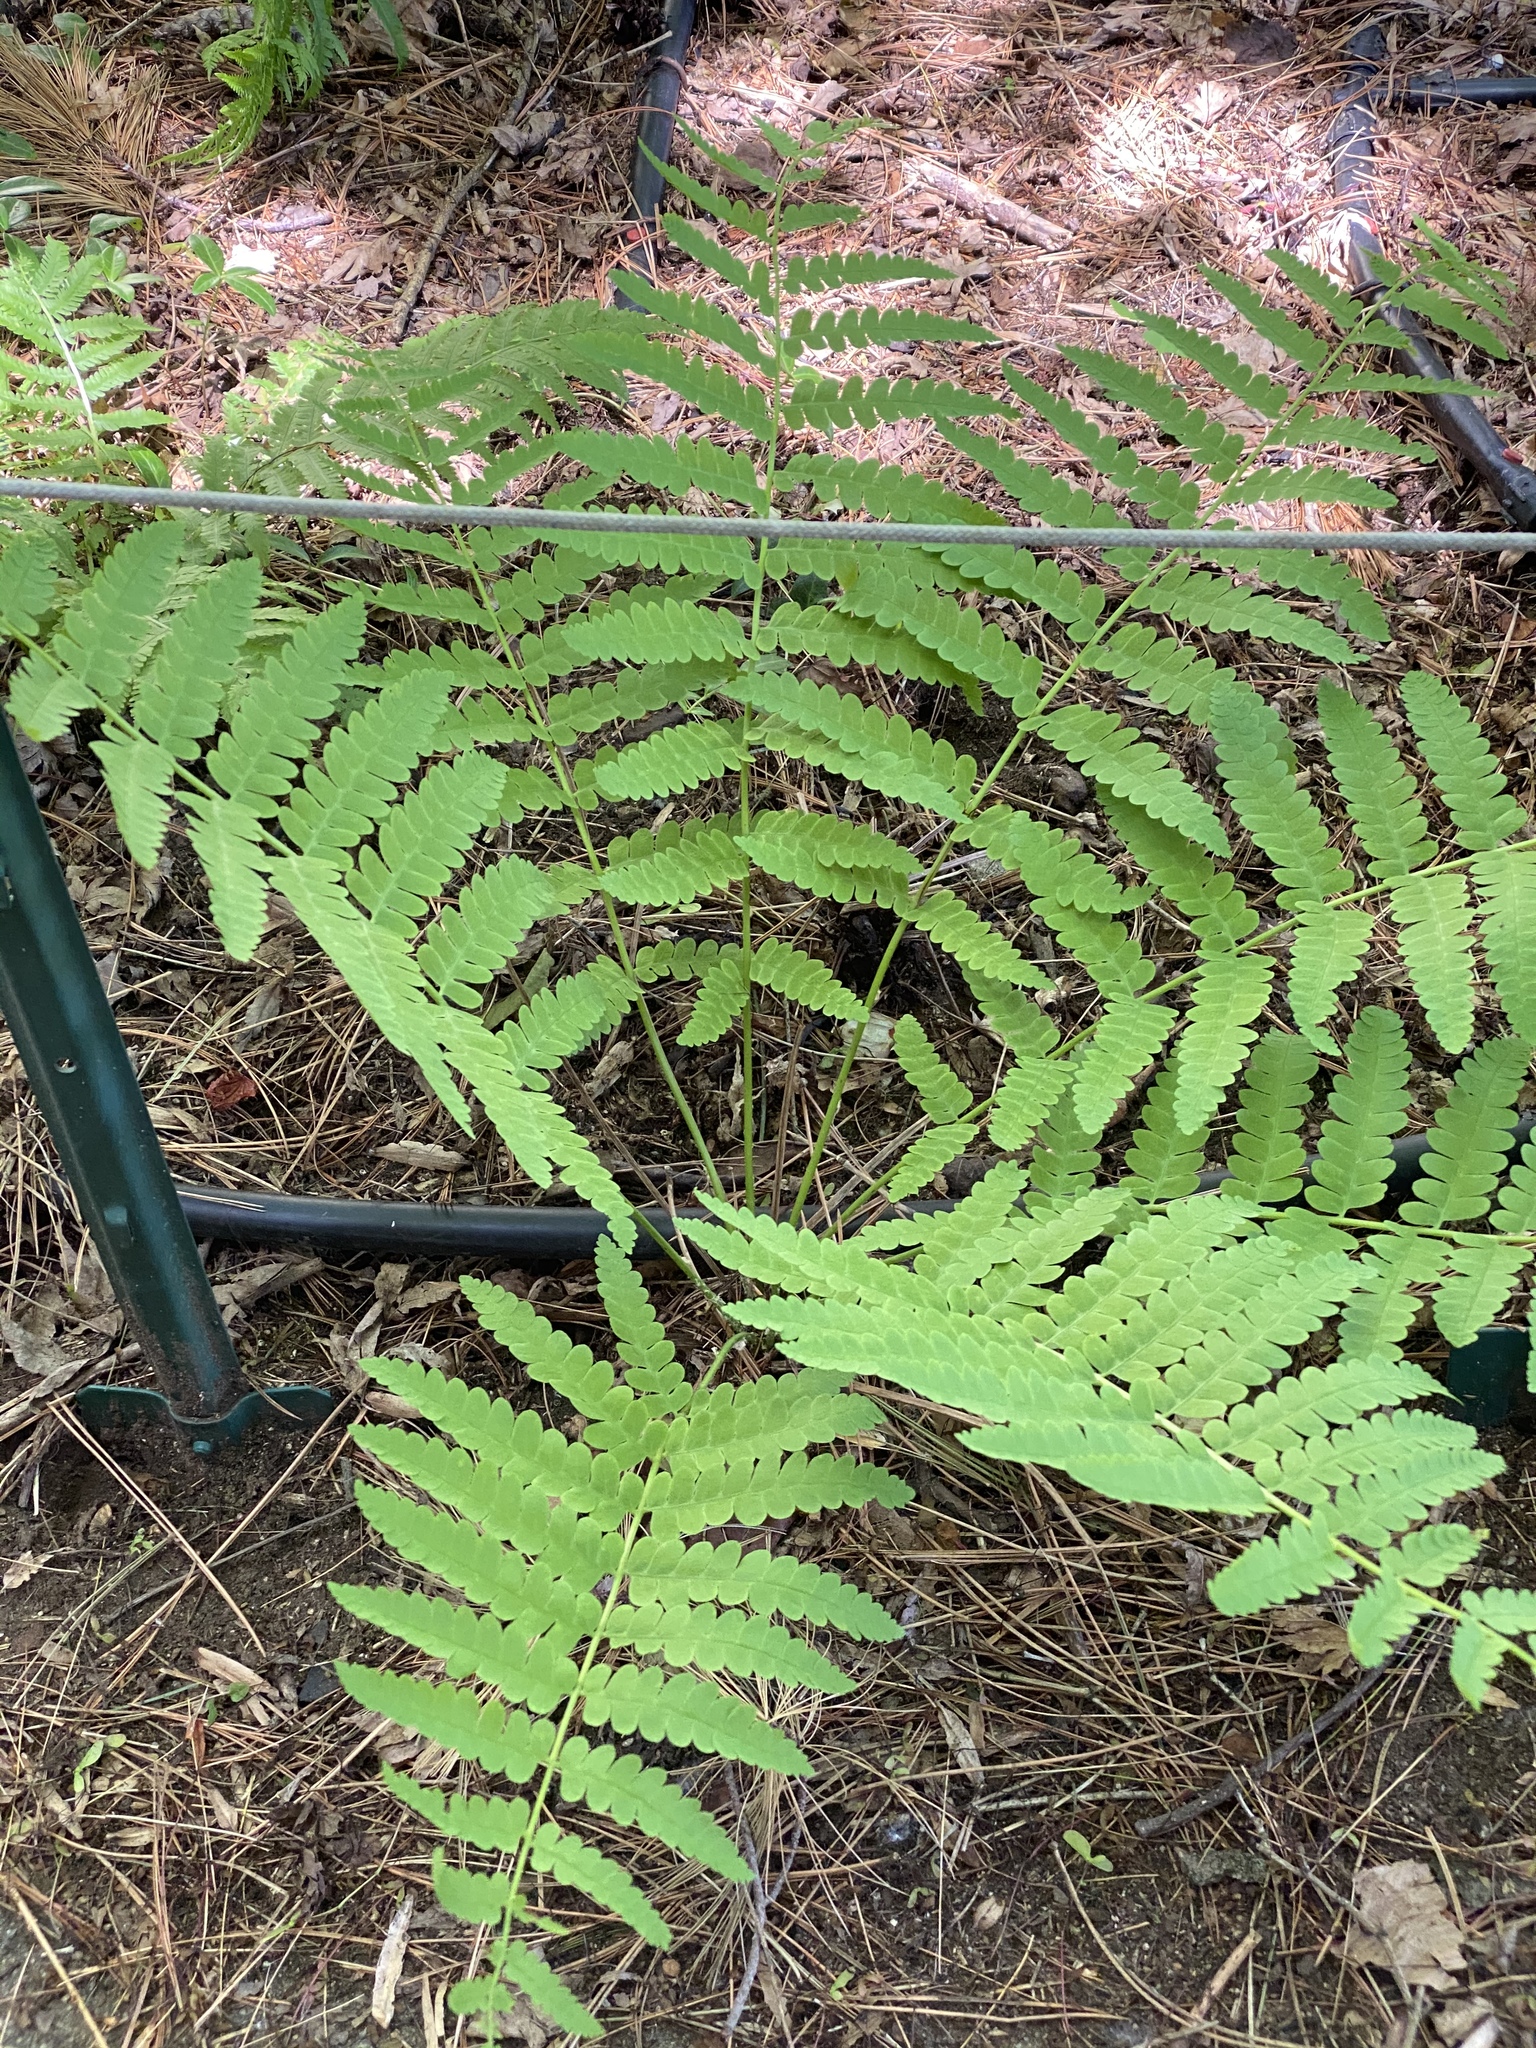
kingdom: Plantae
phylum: Tracheophyta
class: Polypodiopsida
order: Osmundales
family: Osmundaceae
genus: Claytosmunda
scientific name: Claytosmunda claytoniana
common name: Clayton's fern
